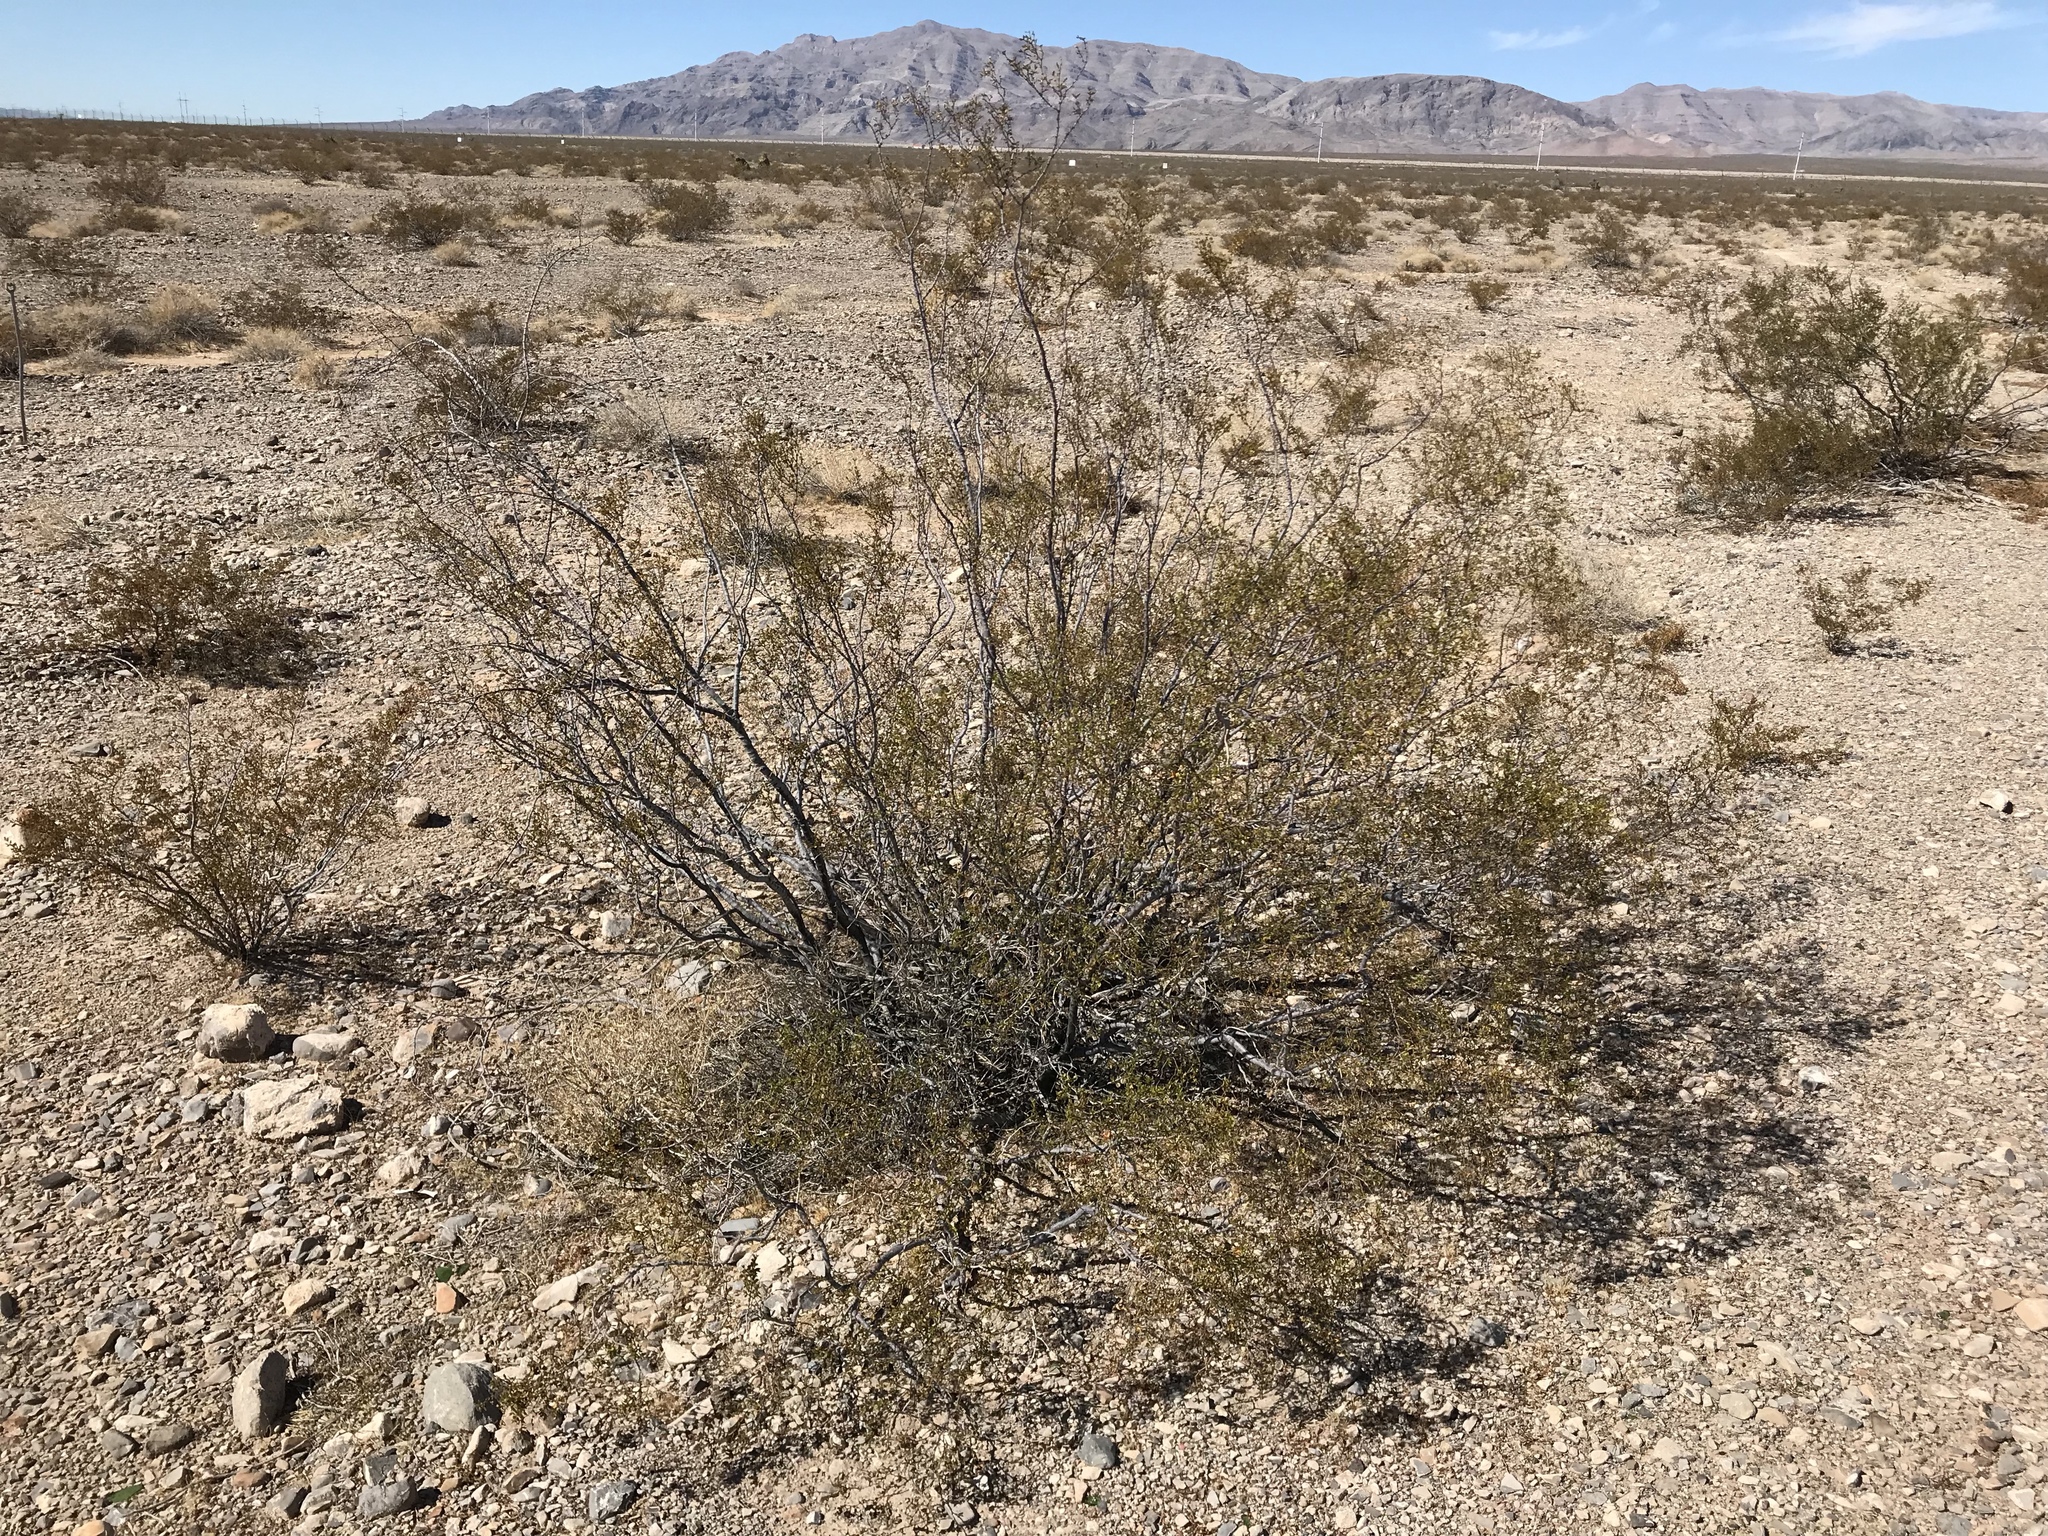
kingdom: Plantae
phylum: Tracheophyta
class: Magnoliopsida
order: Zygophyllales
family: Zygophyllaceae
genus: Larrea
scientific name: Larrea tridentata
